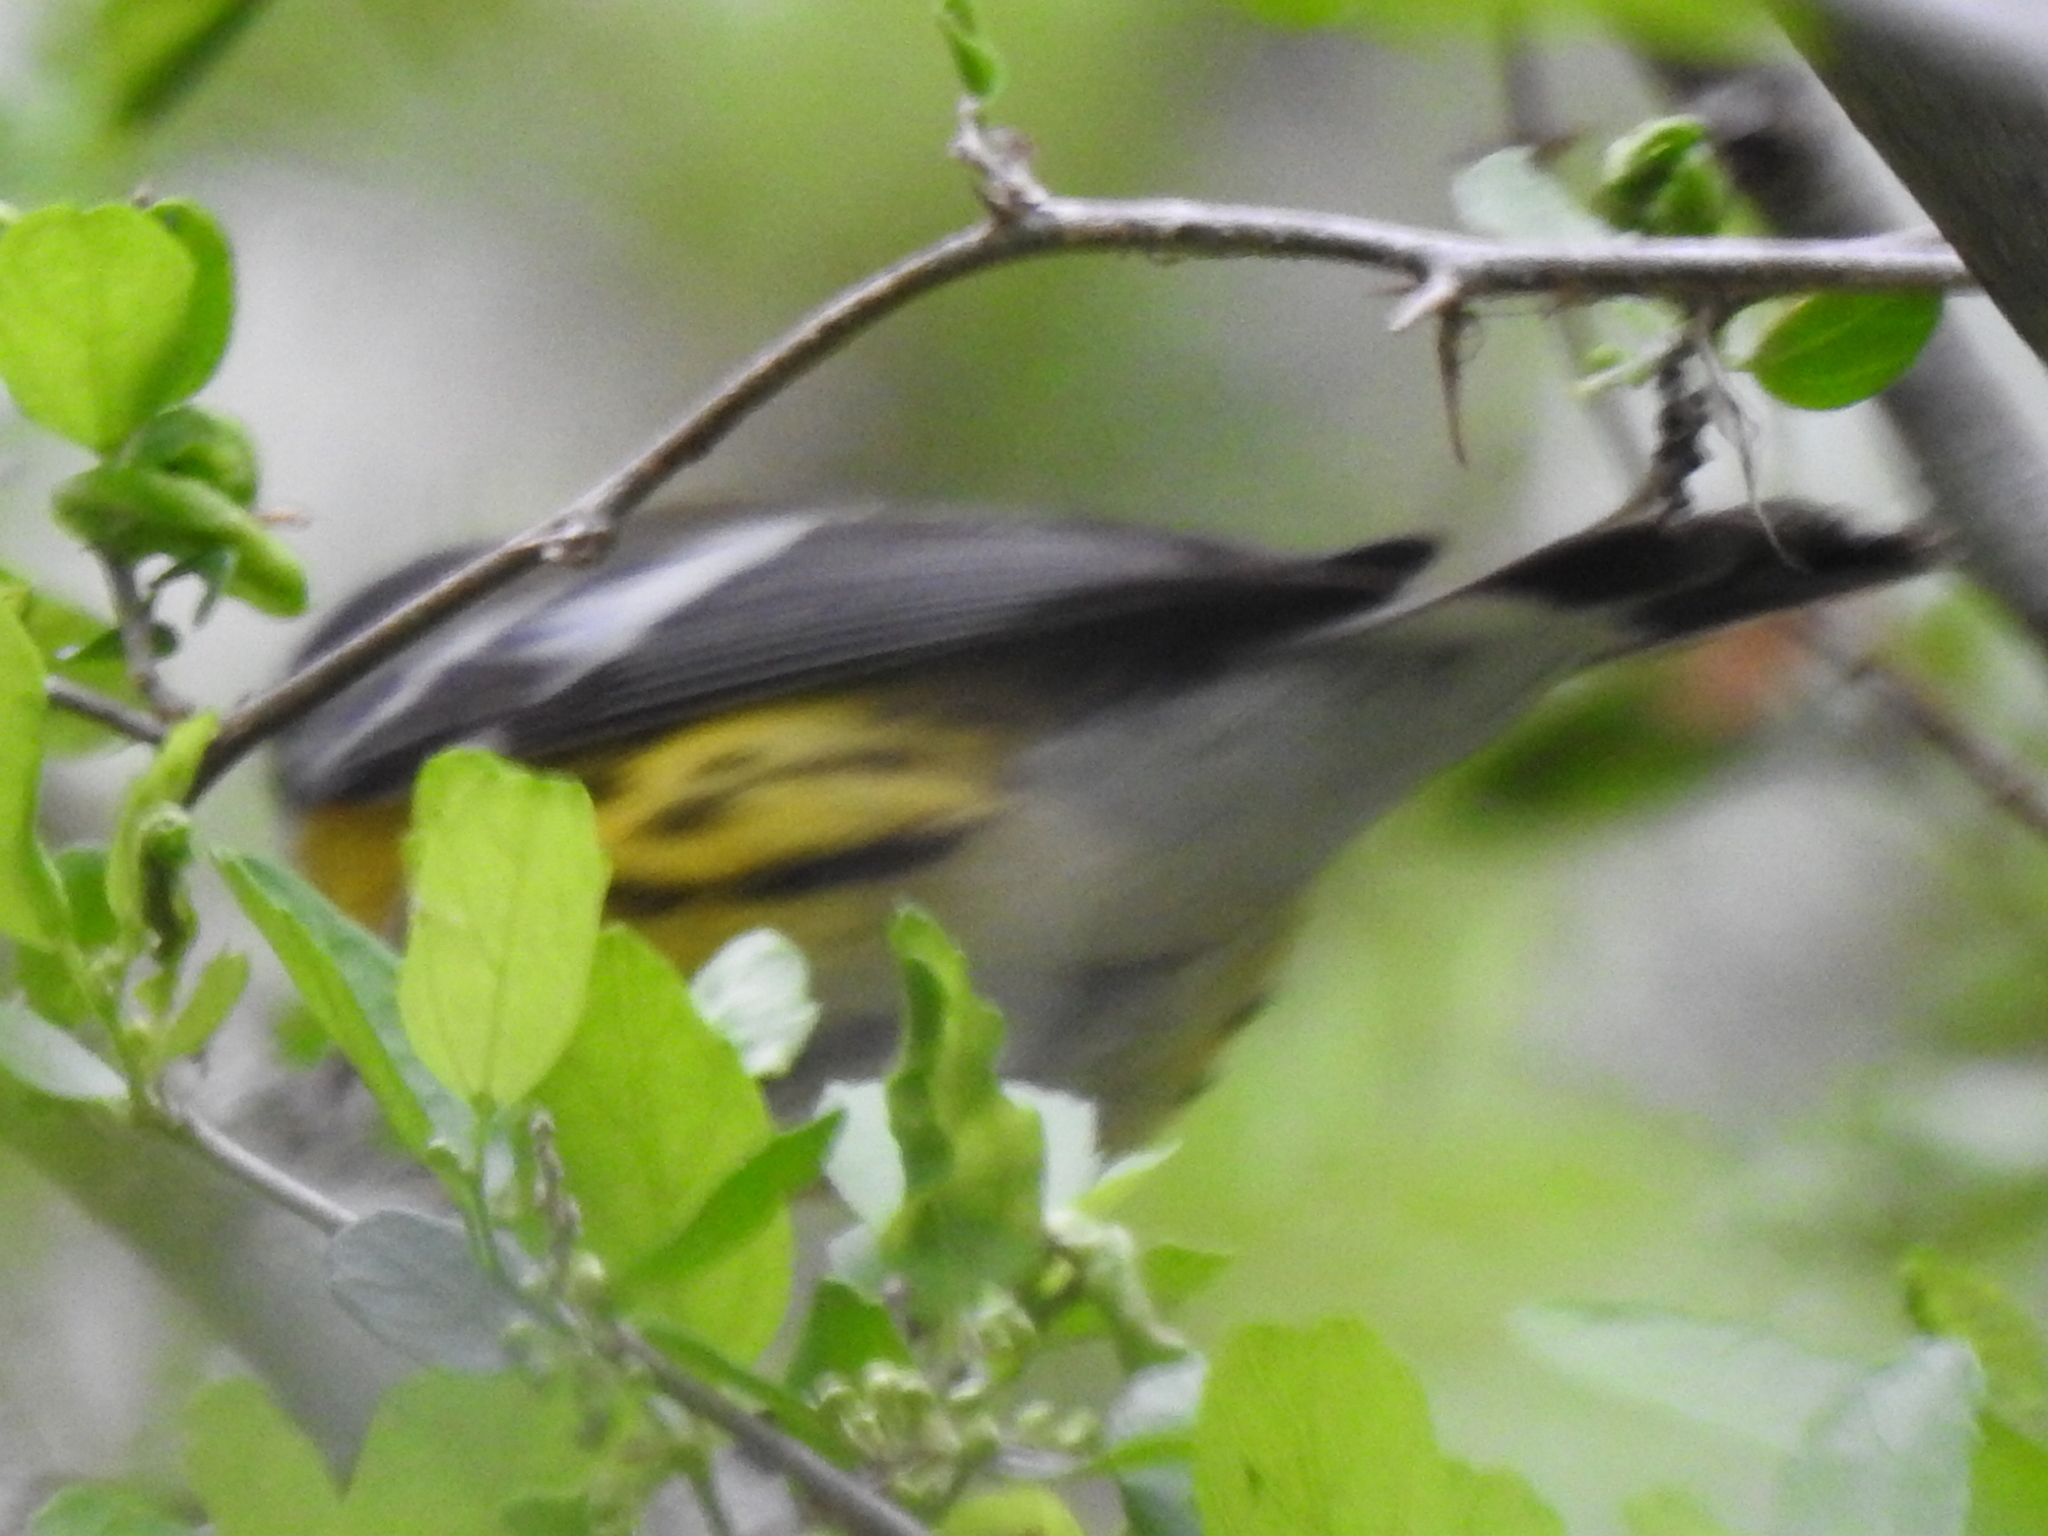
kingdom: Animalia
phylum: Chordata
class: Aves
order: Passeriformes
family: Parulidae
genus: Setophaga
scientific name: Setophaga magnolia
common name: Magnolia warbler
